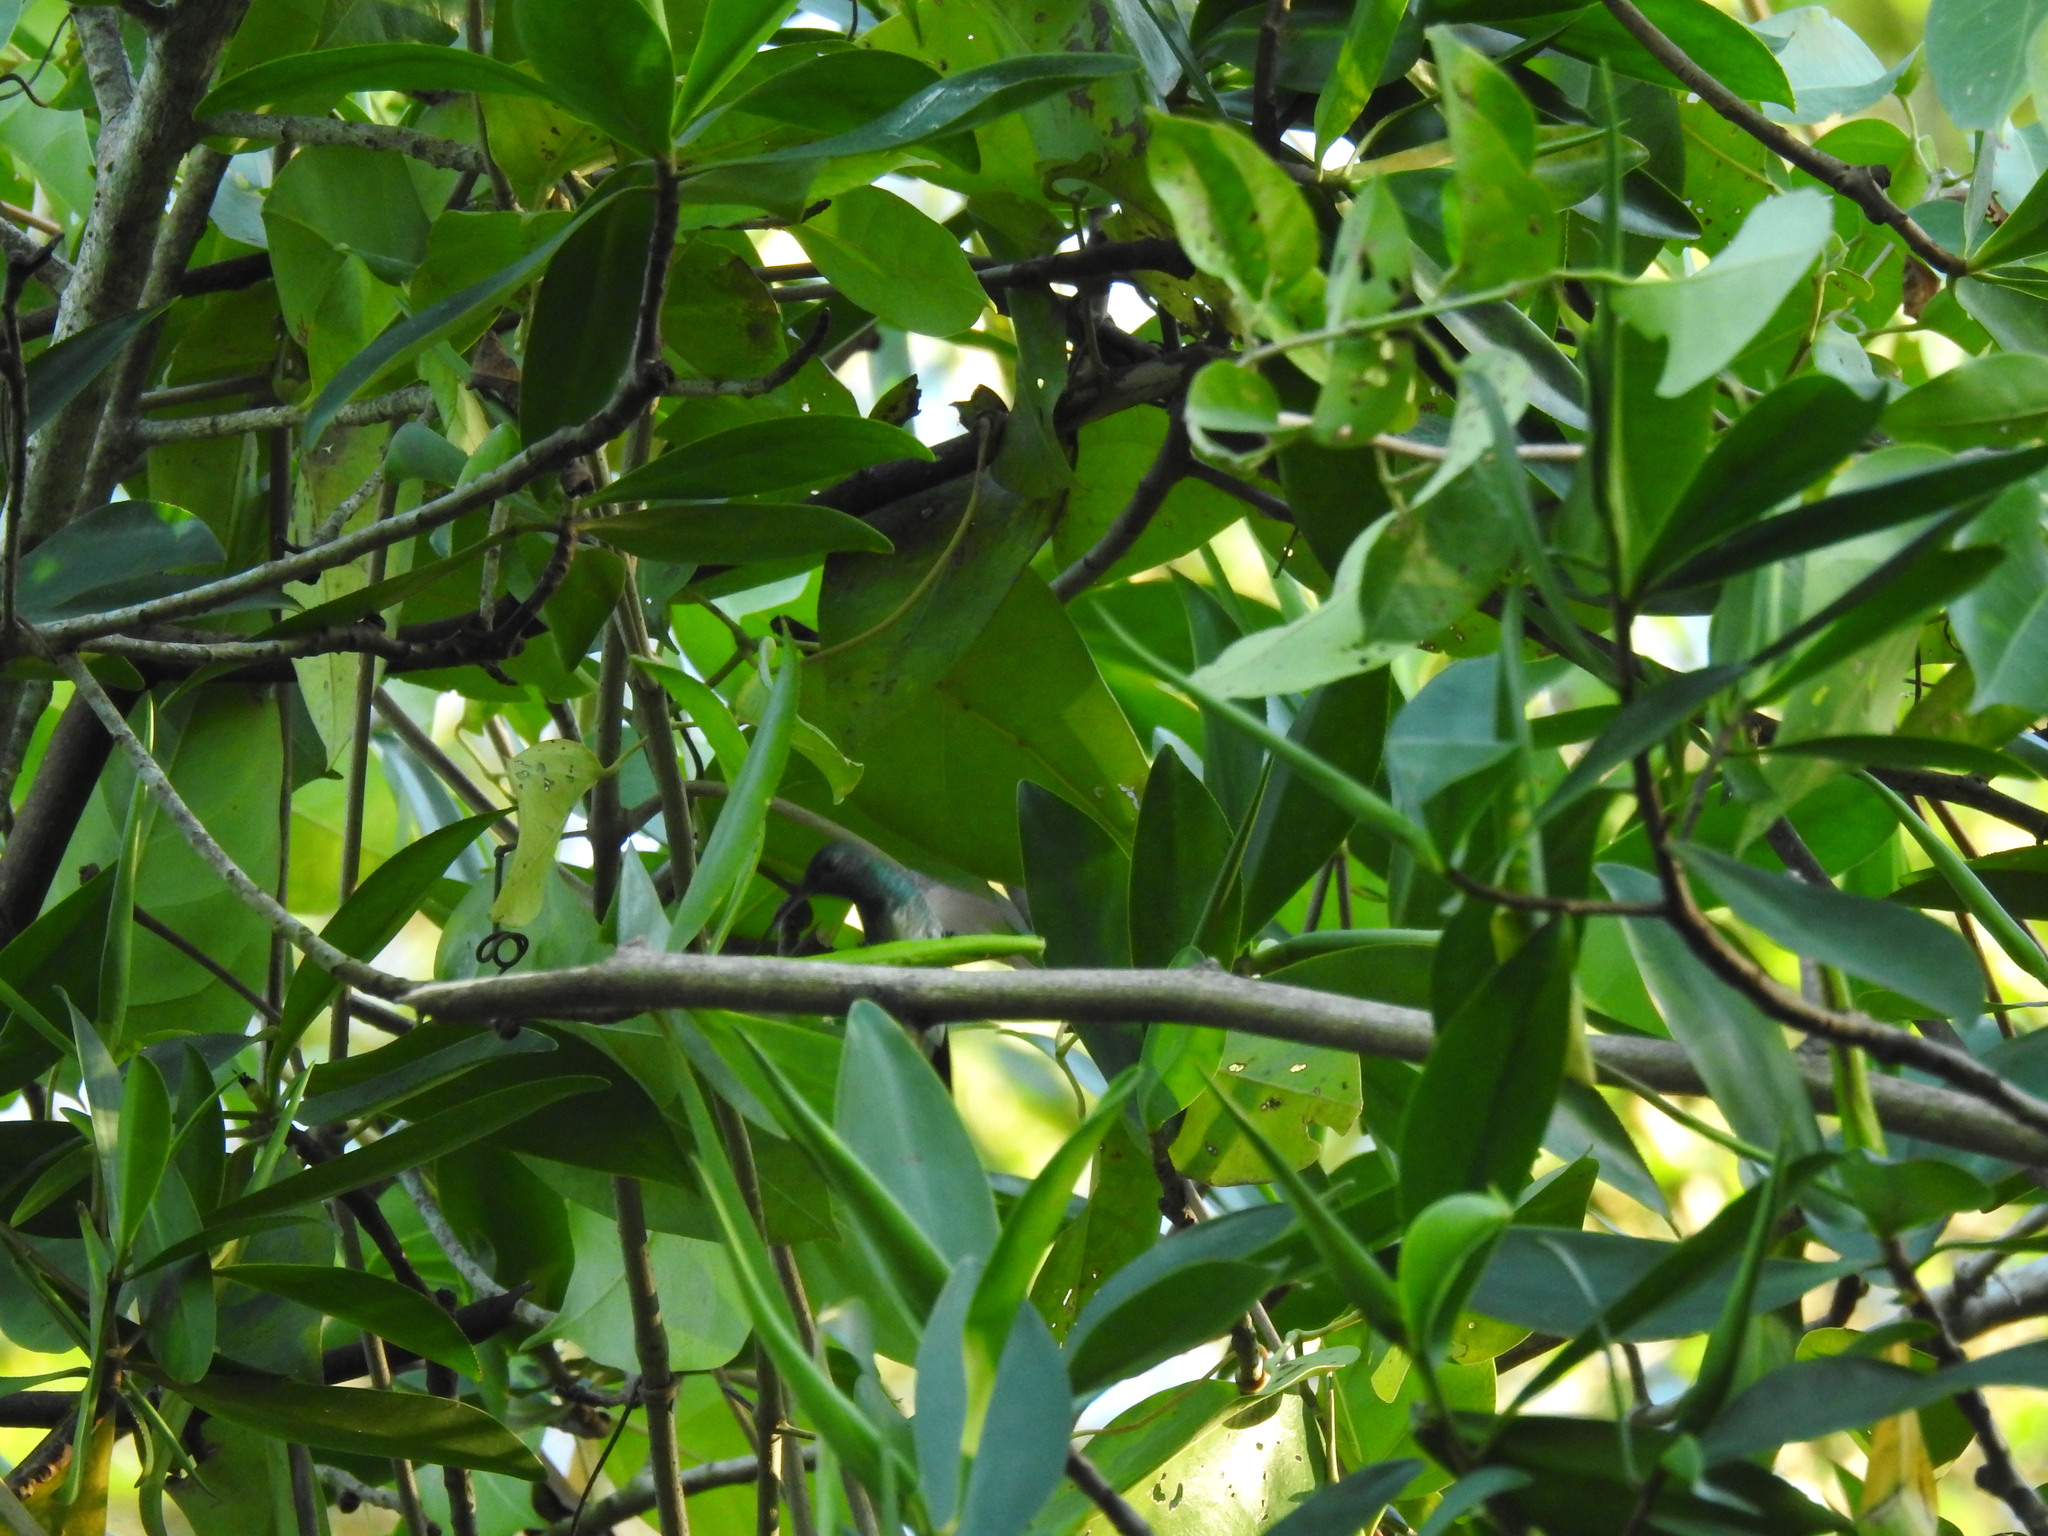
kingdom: Animalia
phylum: Chordata
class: Aves
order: Apodiformes
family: Trochilidae
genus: Amazilia
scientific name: Amazilia boucardi
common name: Mangrove hummingbird
